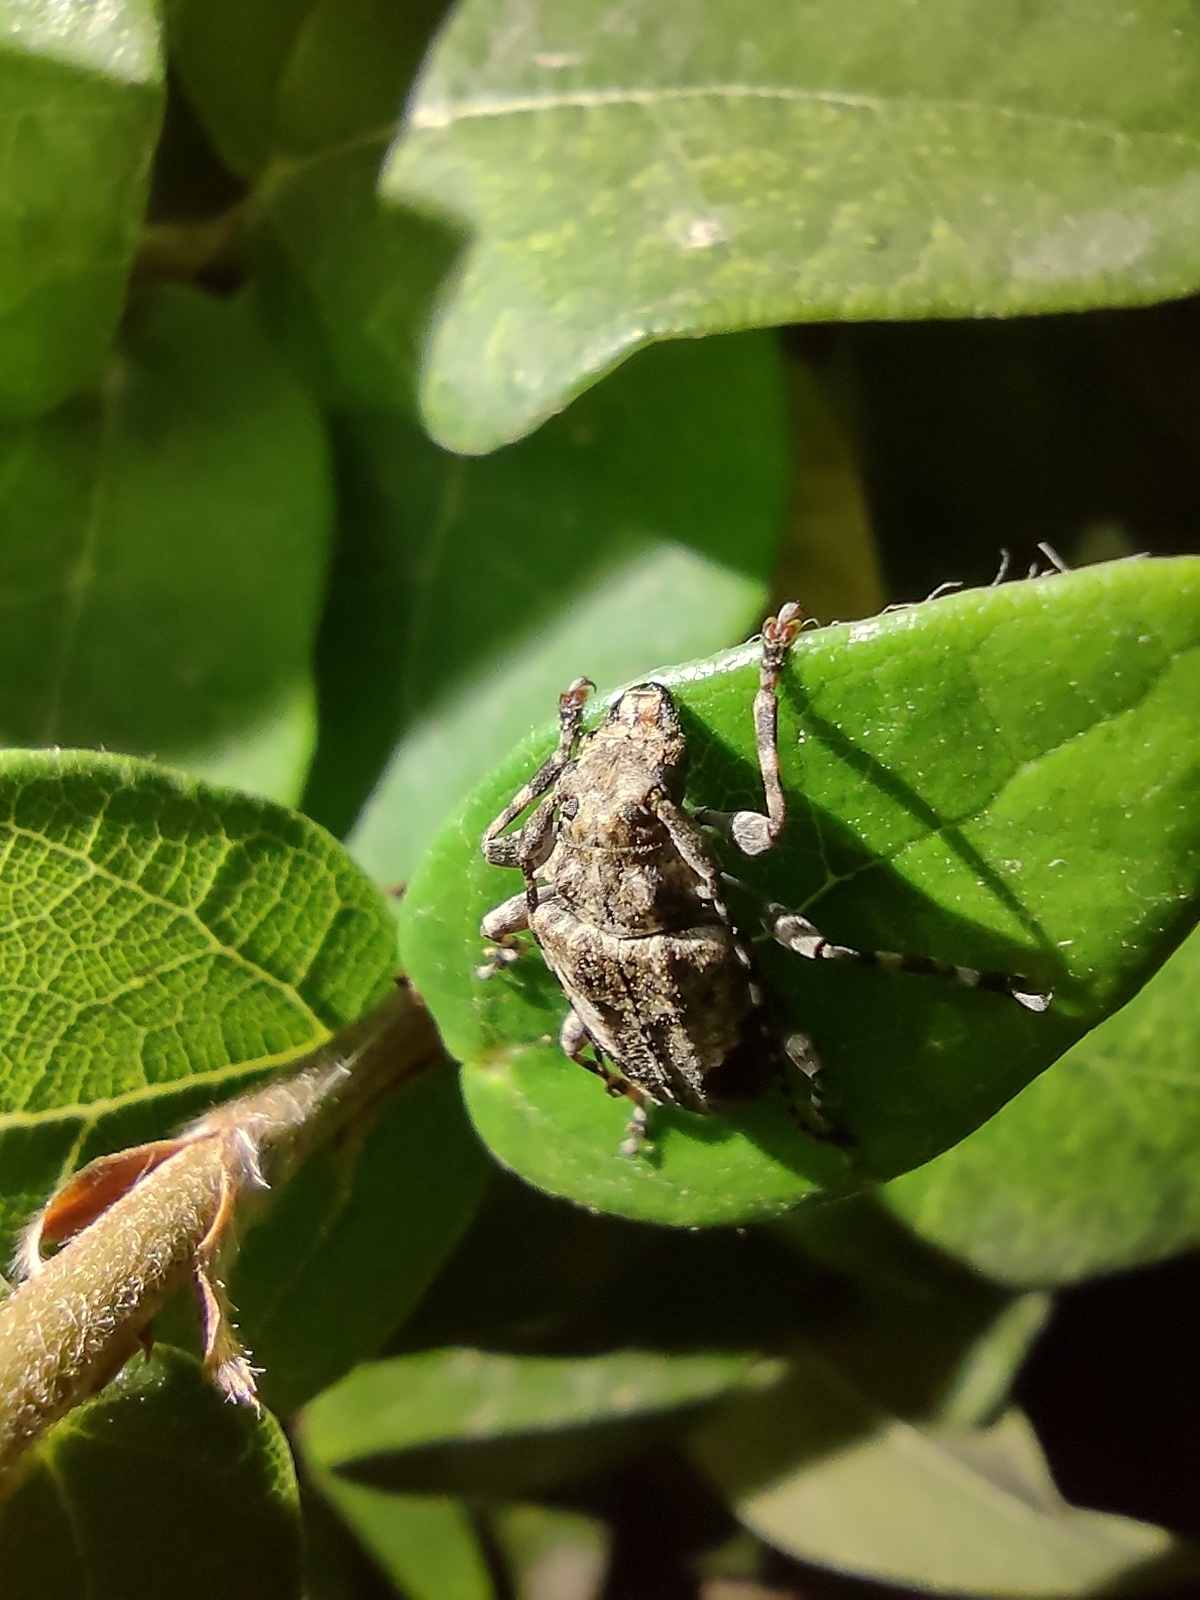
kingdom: Animalia
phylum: Arthropoda
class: Insecta
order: Coleoptera
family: Cerambycidae
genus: Psapharochrus
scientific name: Psapharochrus jaspideus
